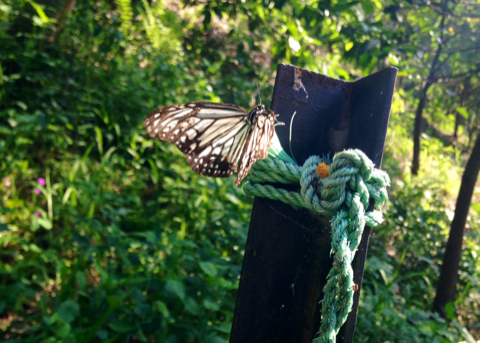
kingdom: Animalia
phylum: Arthropoda
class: Insecta
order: Lepidoptera
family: Nymphalidae
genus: Parantica
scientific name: Parantica aglea
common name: Glassy tiger
